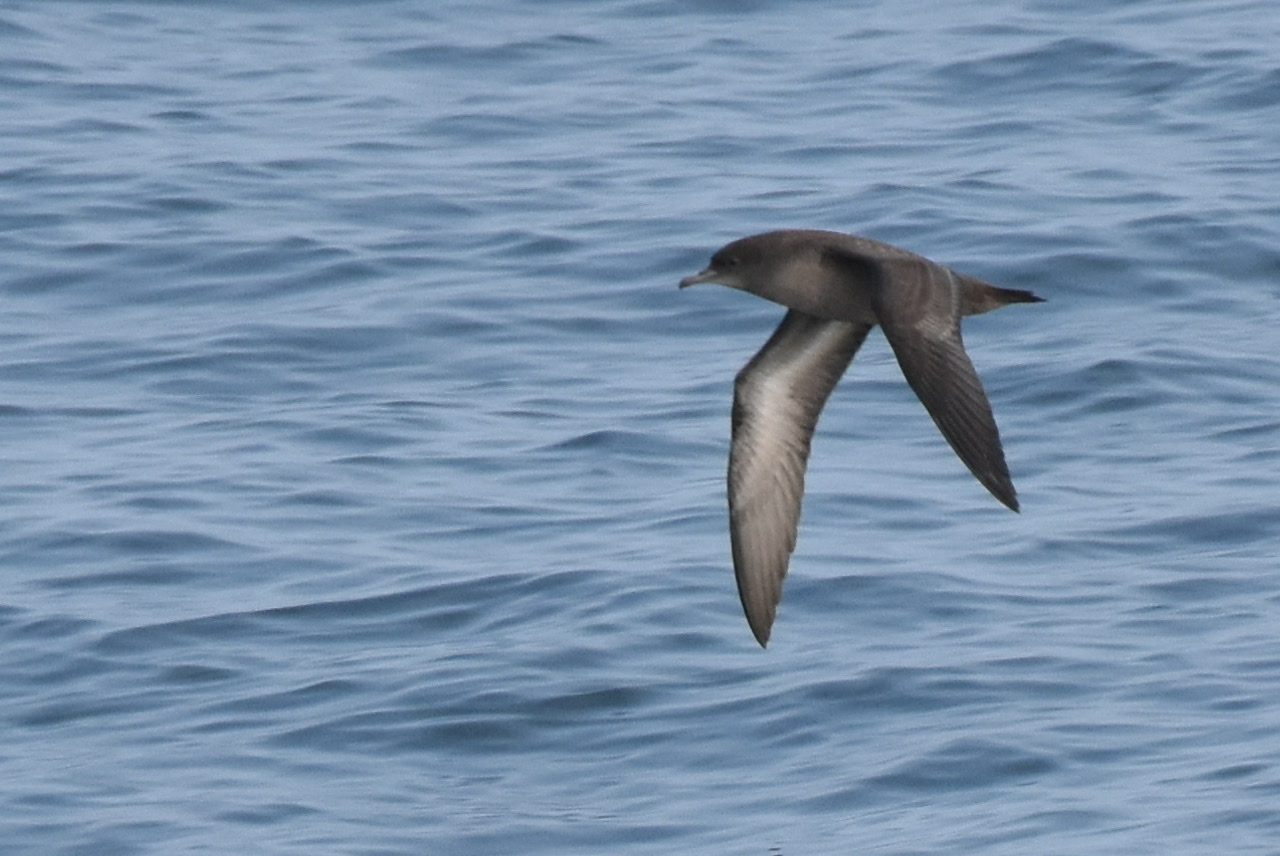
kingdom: Animalia
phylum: Chordata
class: Aves
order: Procellariiformes
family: Procellariidae
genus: Puffinus
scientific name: Puffinus griseus
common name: Sooty shearwater
